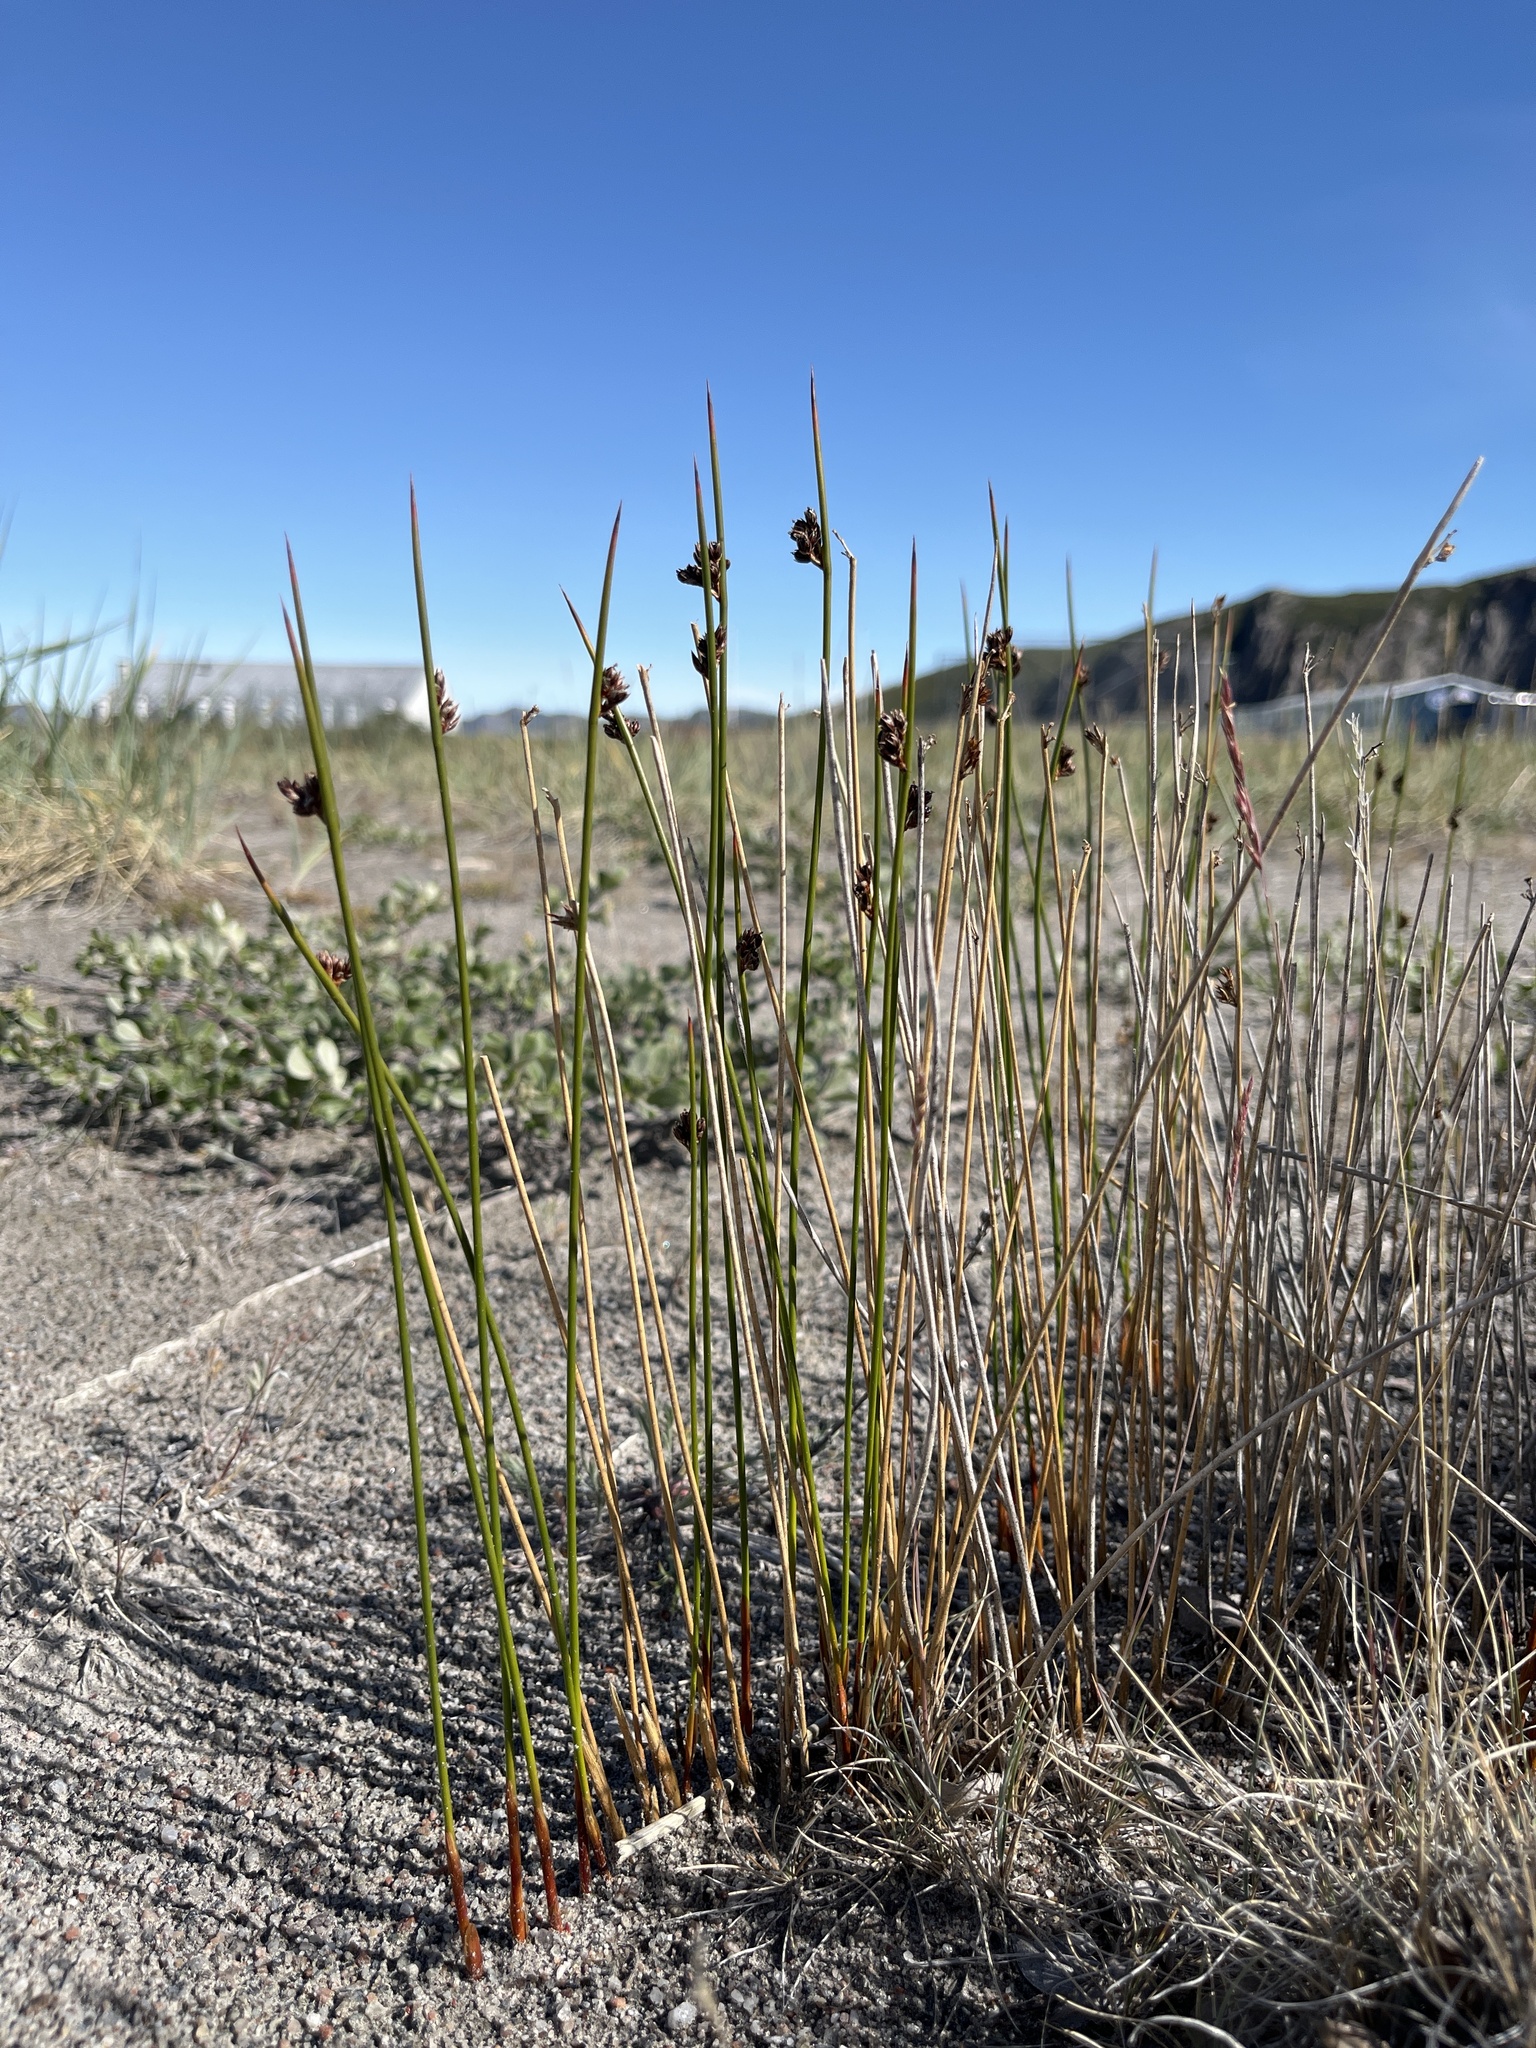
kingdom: Plantae
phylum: Tracheophyta
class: Liliopsida
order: Poales
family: Juncaceae
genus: Juncus
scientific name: Juncus arcticus
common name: Arctic rush
